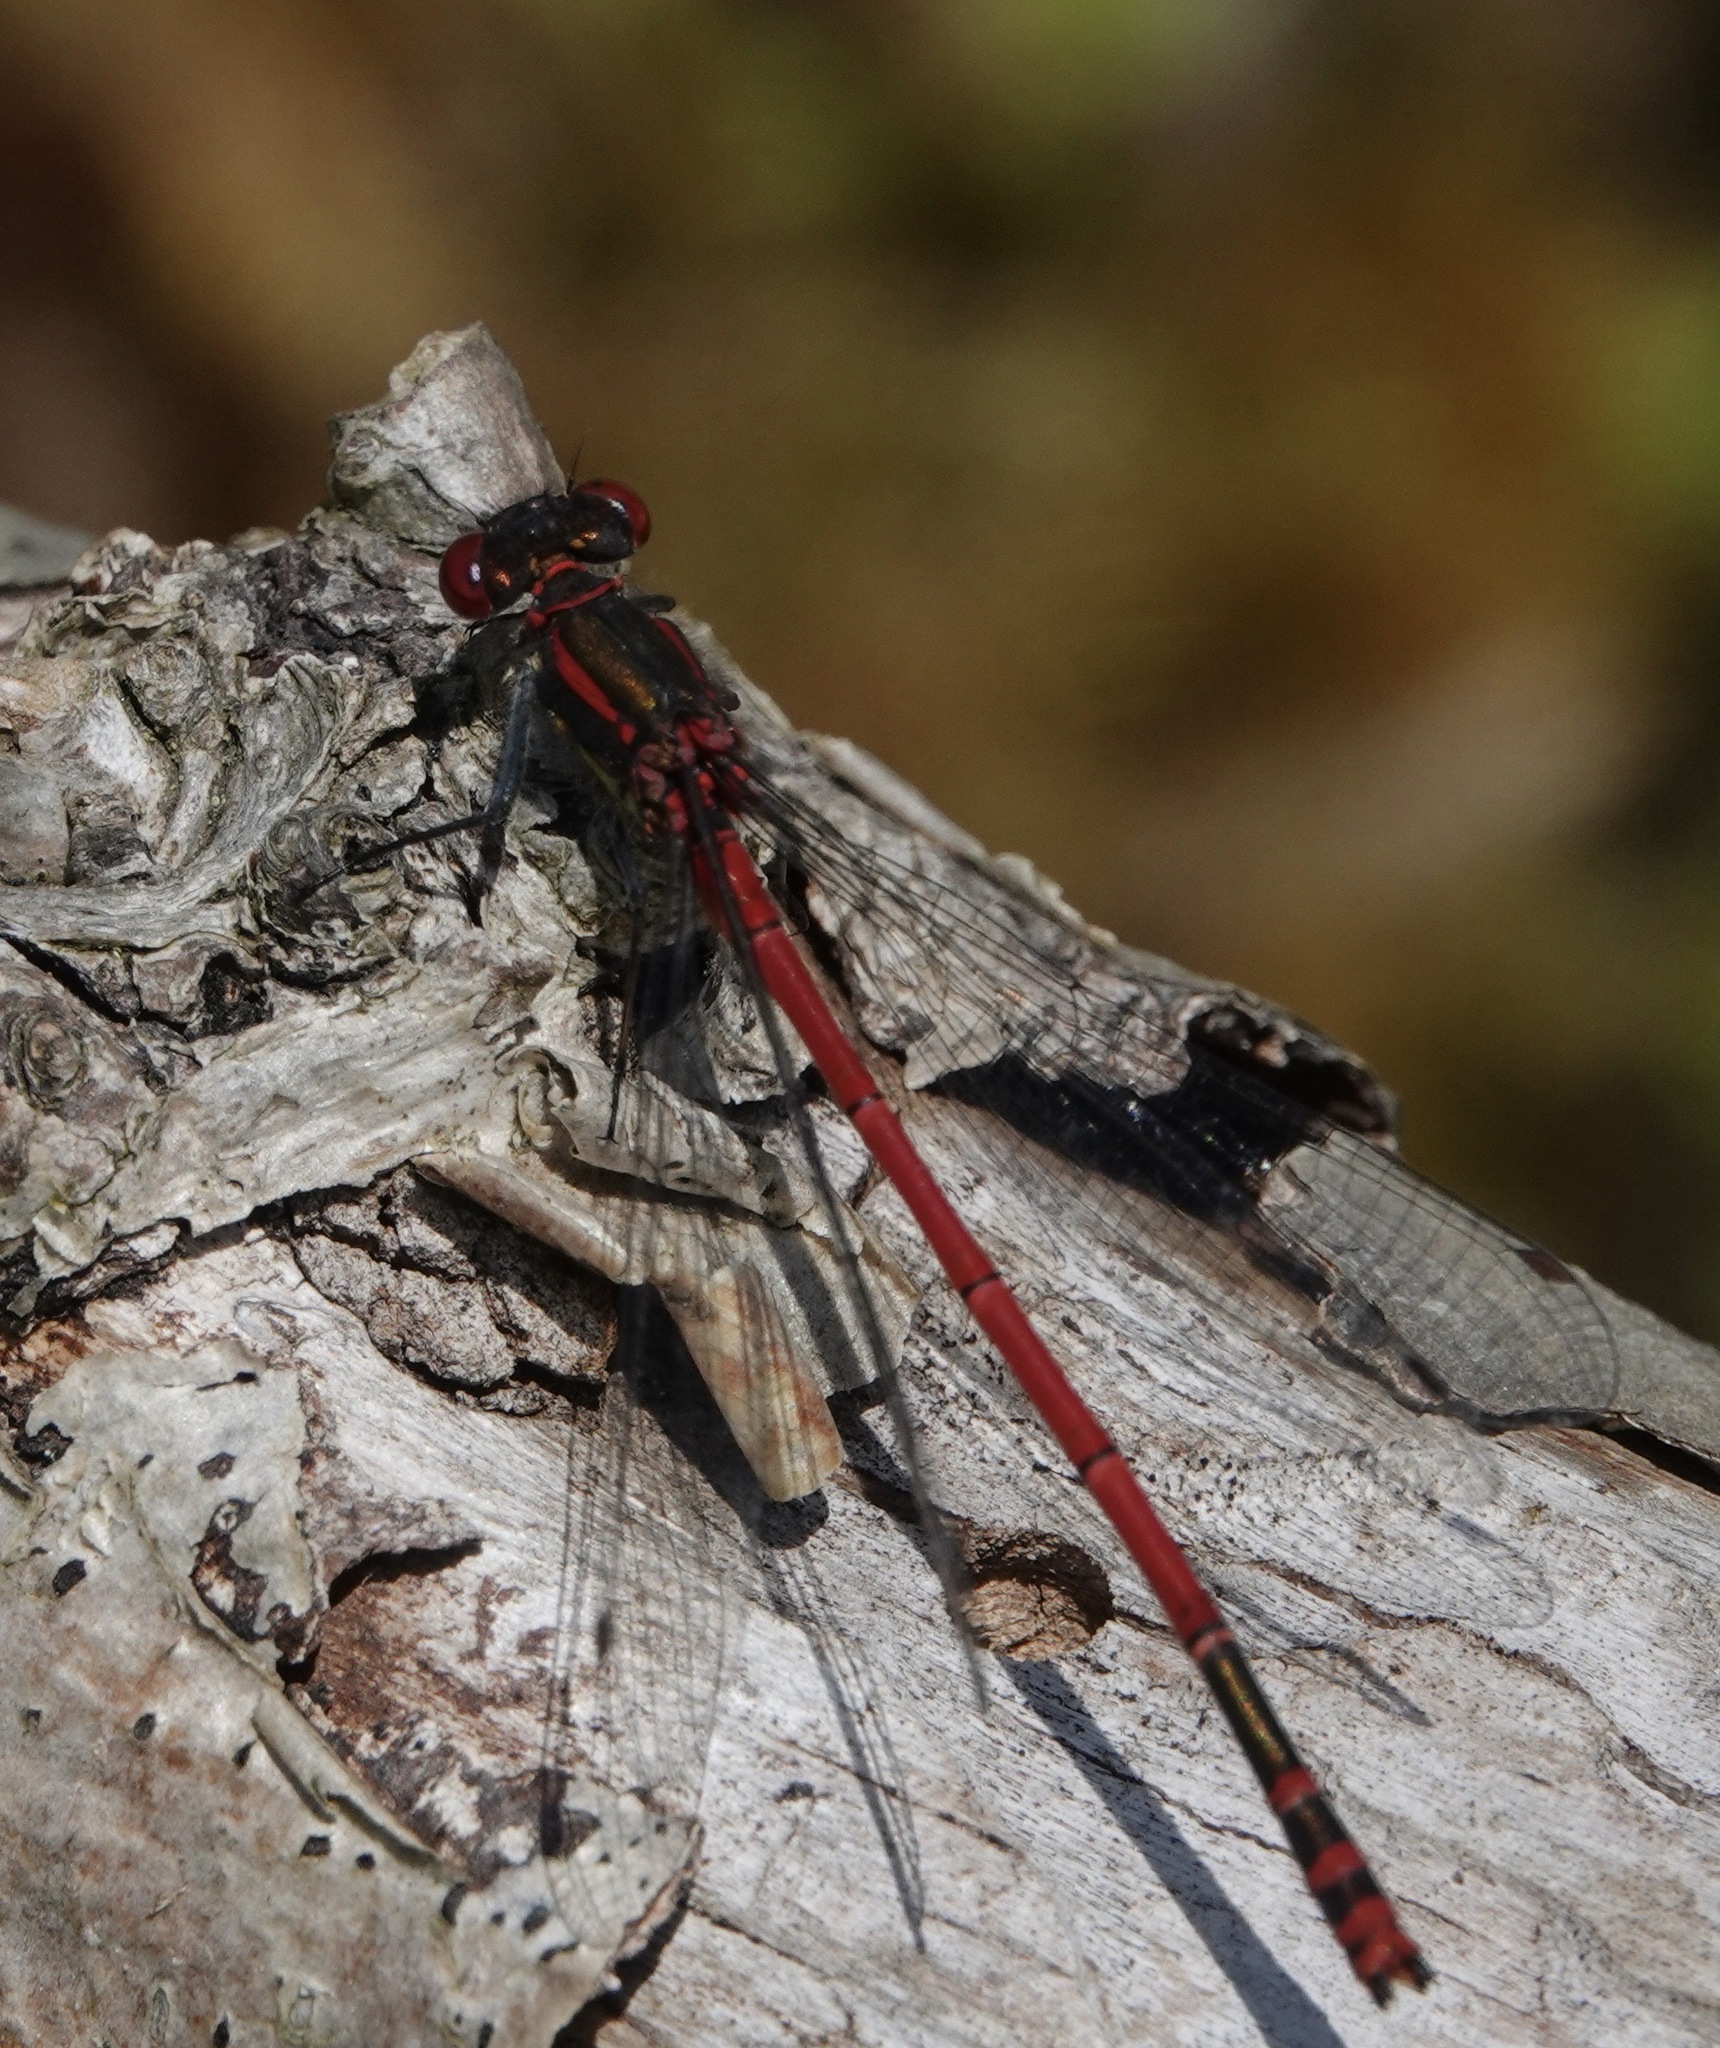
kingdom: Animalia
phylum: Arthropoda
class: Insecta
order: Odonata
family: Coenagrionidae
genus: Pyrrhosoma
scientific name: Pyrrhosoma nymphula
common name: Large red damsel
